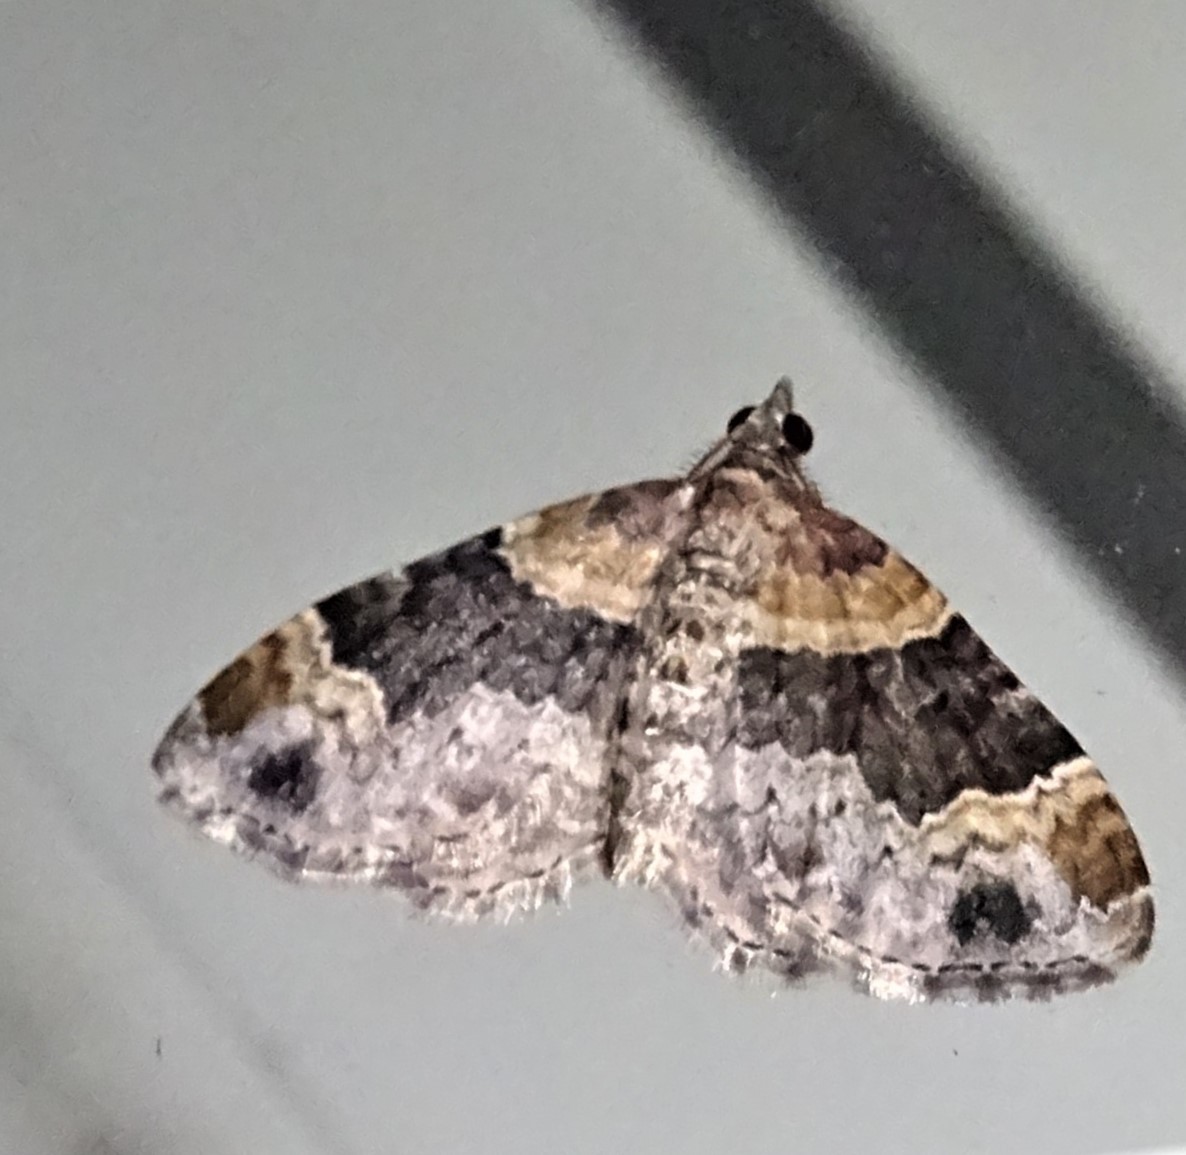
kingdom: Animalia
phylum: Arthropoda
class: Insecta
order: Lepidoptera
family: Geometridae
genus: Xanthorhoe
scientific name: Xanthorhoe ferrugata
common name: Dark-barred twin-spot carpet
